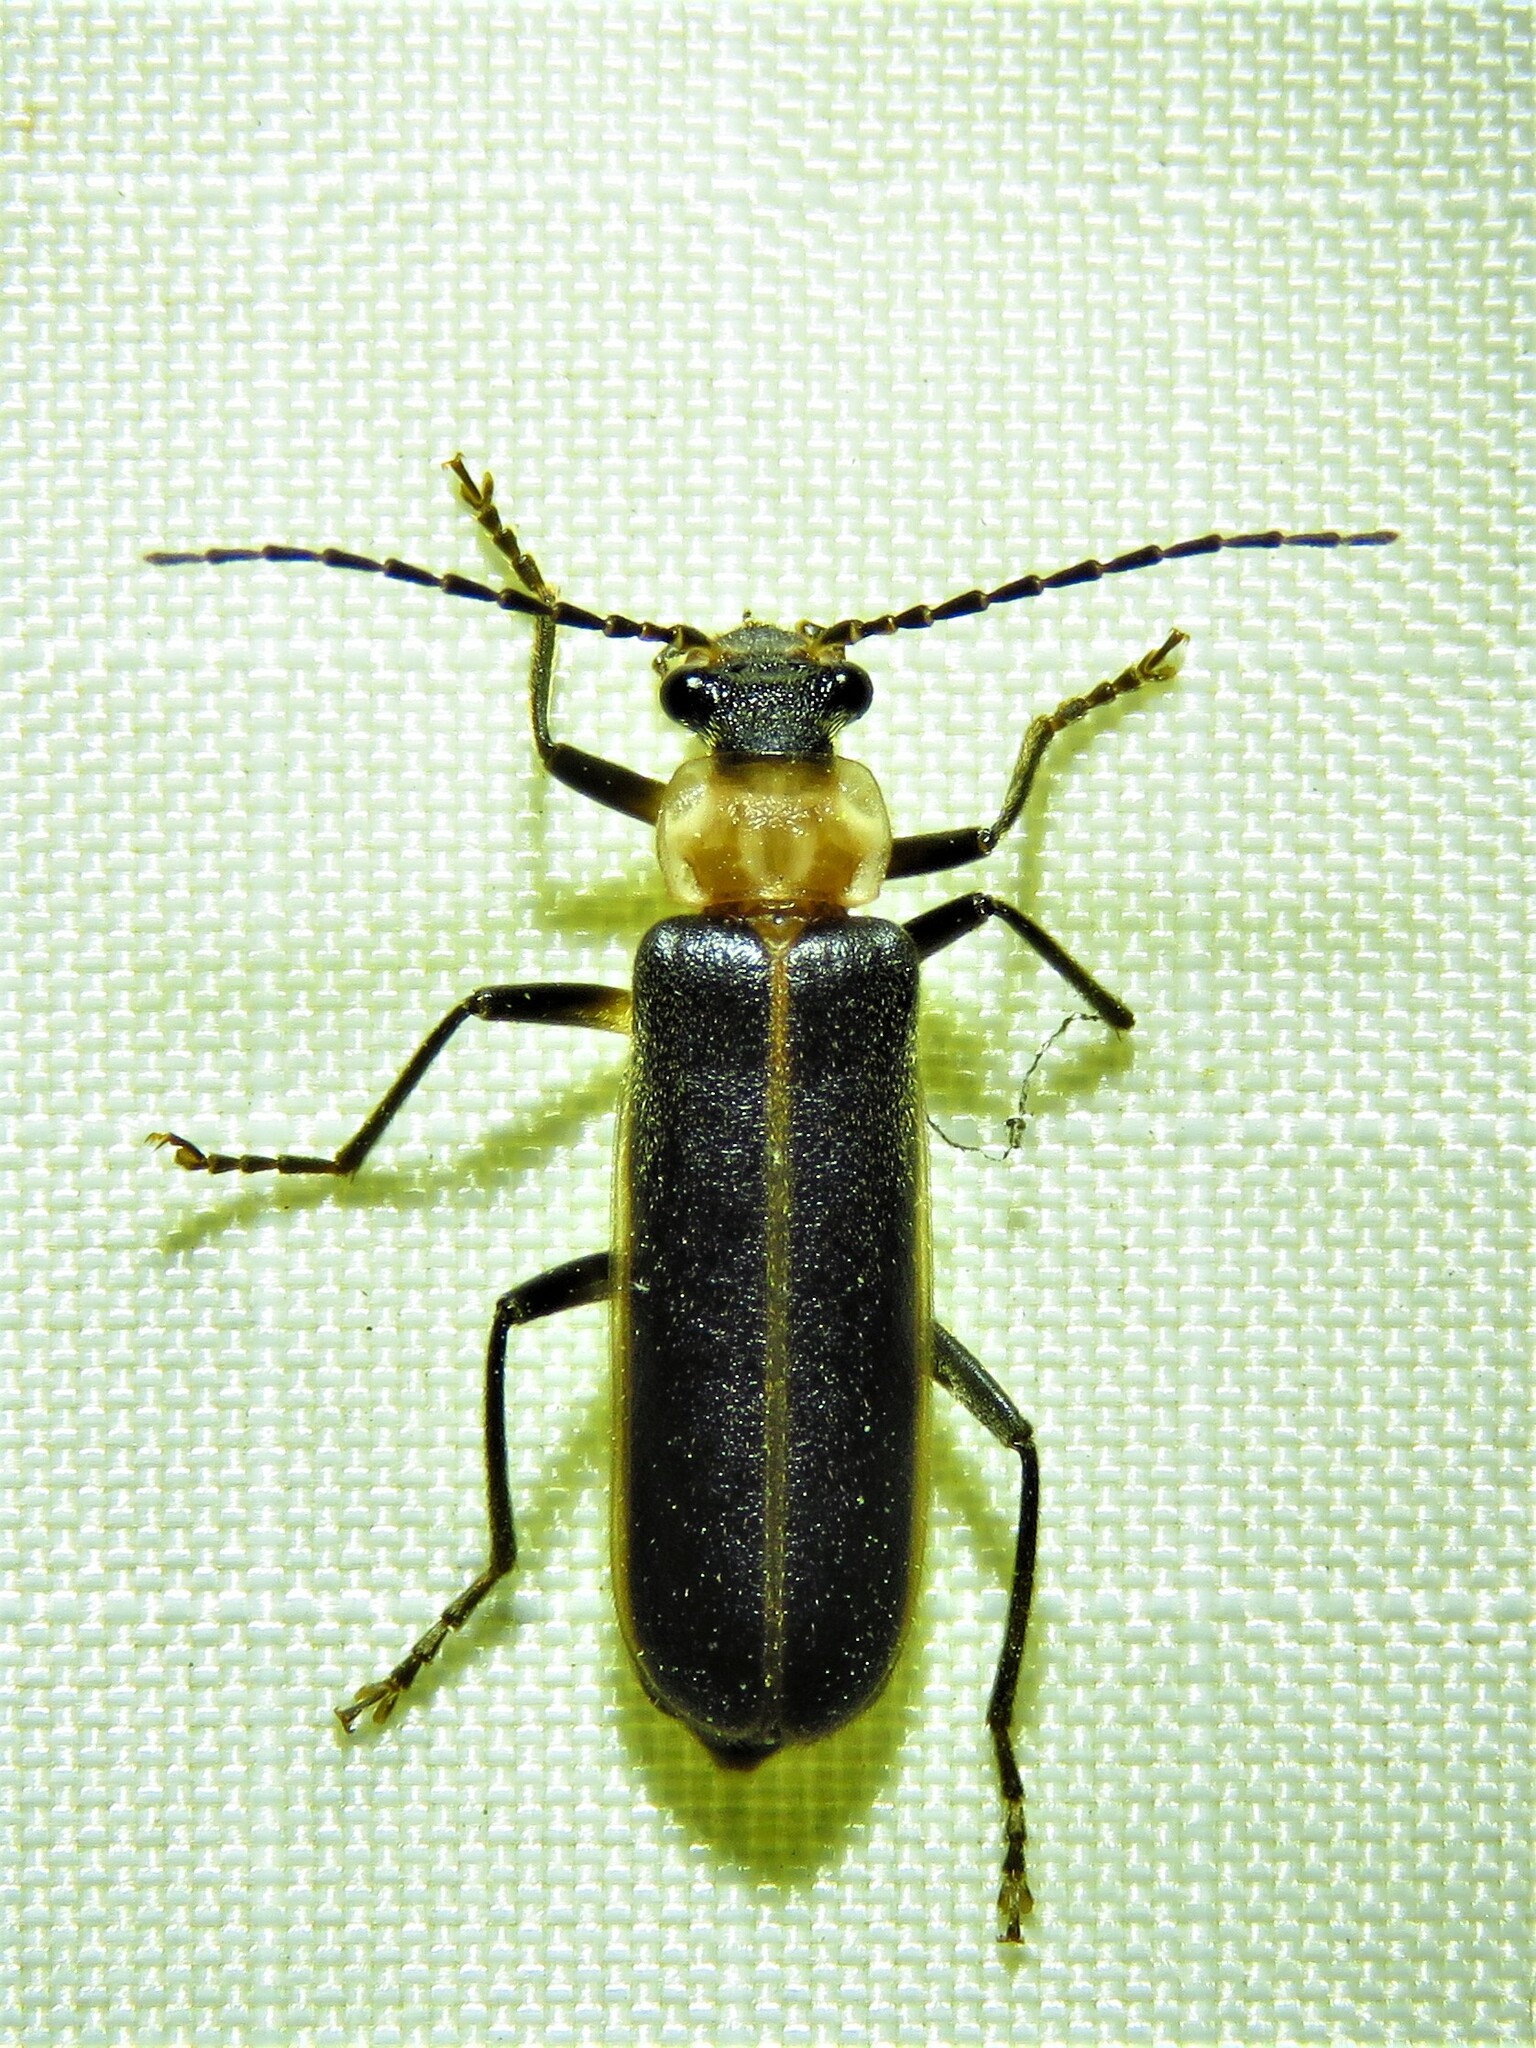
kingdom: Animalia
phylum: Arthropoda
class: Insecta
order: Coleoptera
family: Cantharidae
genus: Podabrus
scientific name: Podabrus flavicollis
